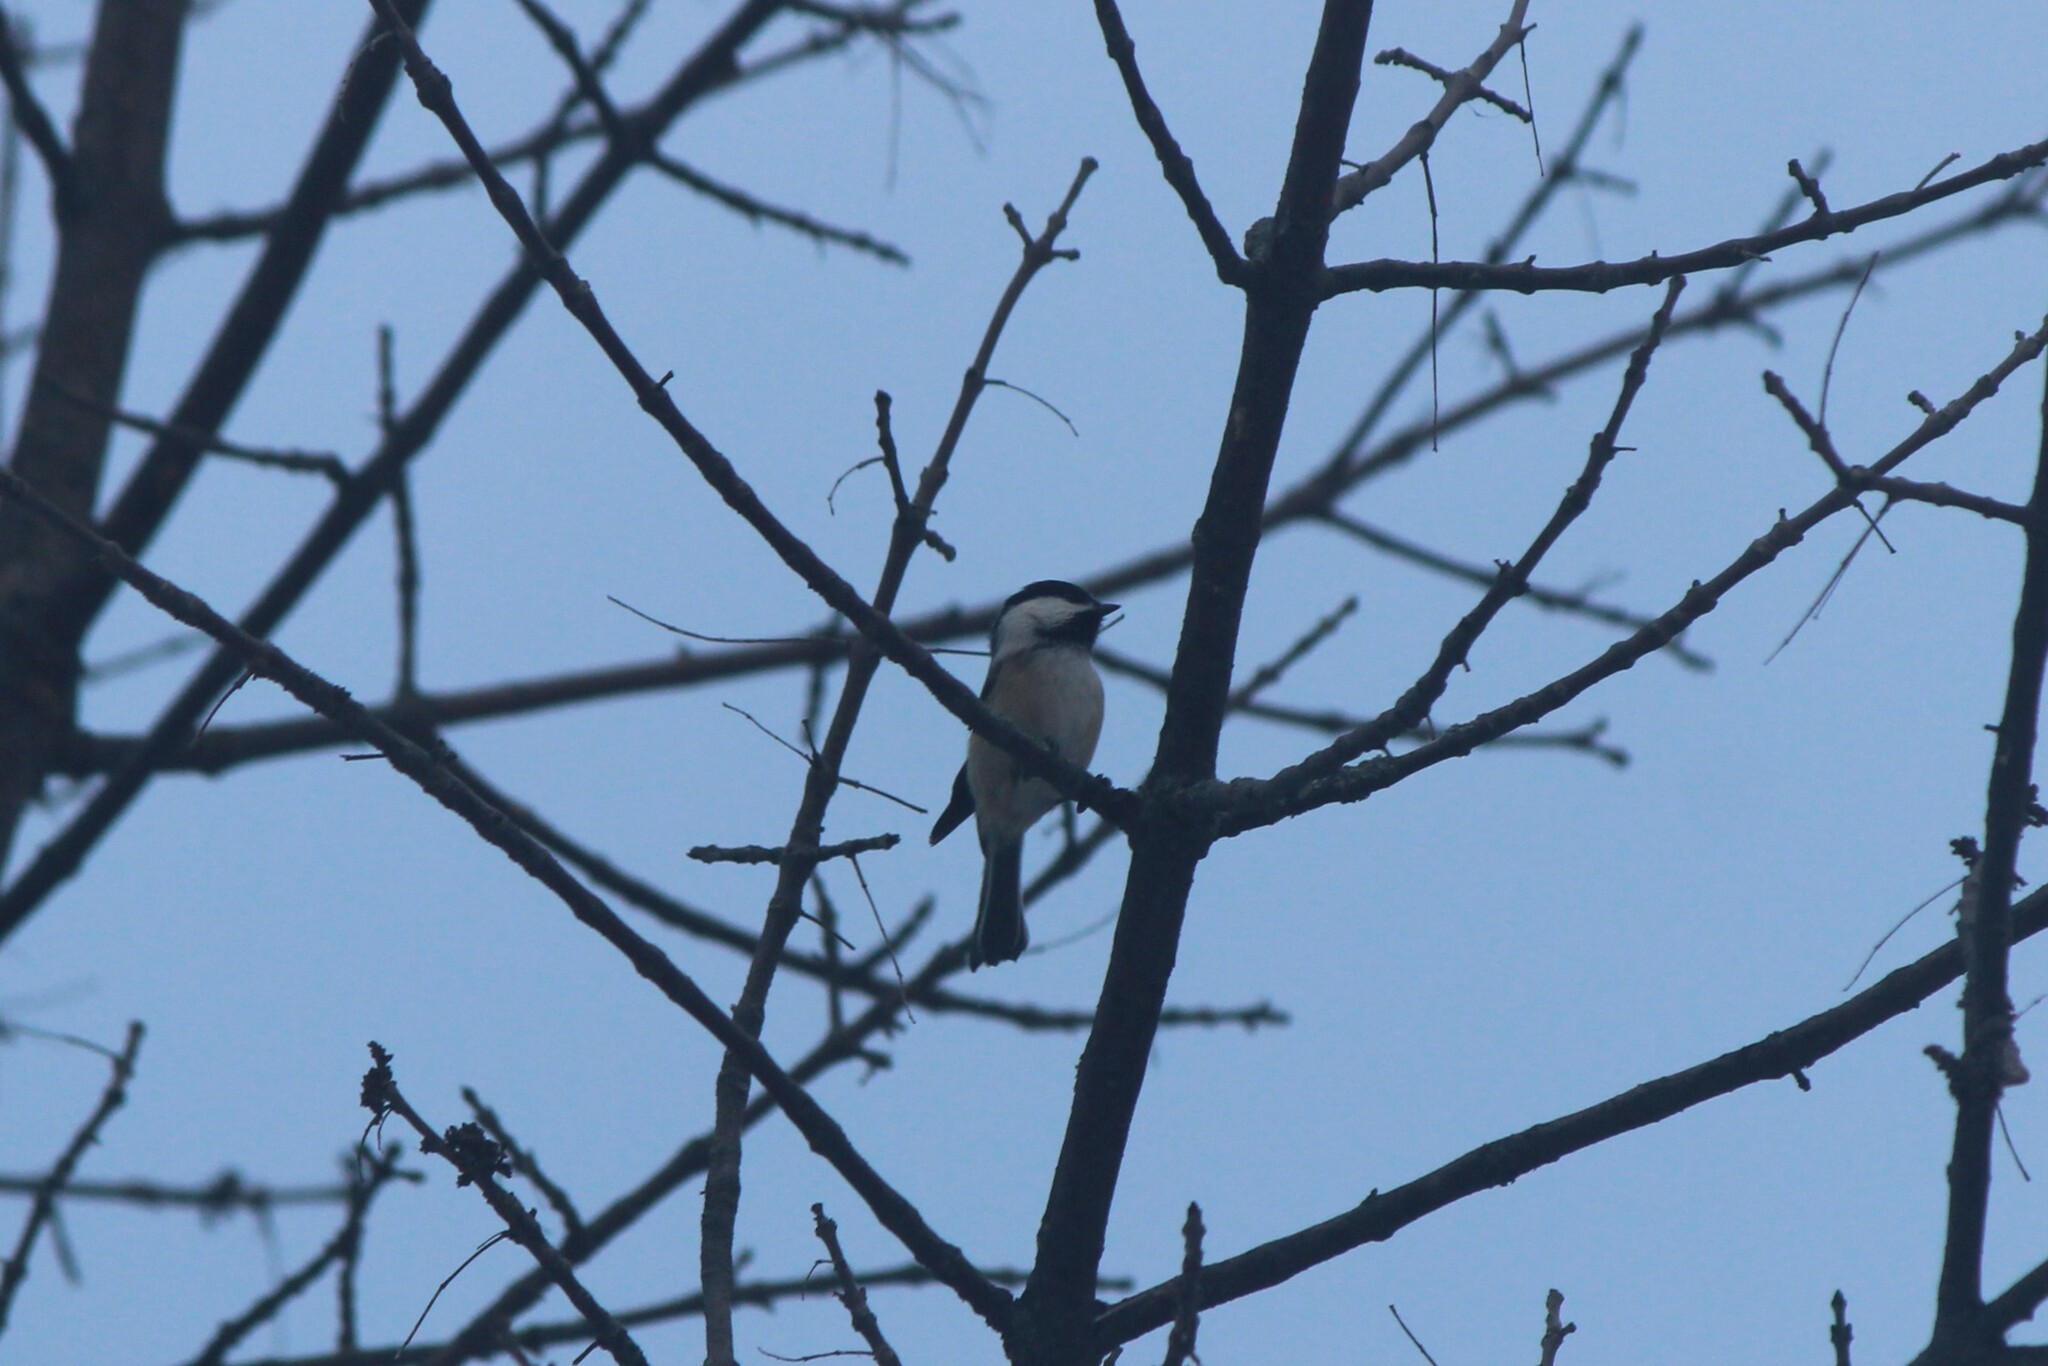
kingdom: Animalia
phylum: Chordata
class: Aves
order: Passeriformes
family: Paridae
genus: Poecile
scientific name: Poecile atricapillus
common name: Black-capped chickadee
